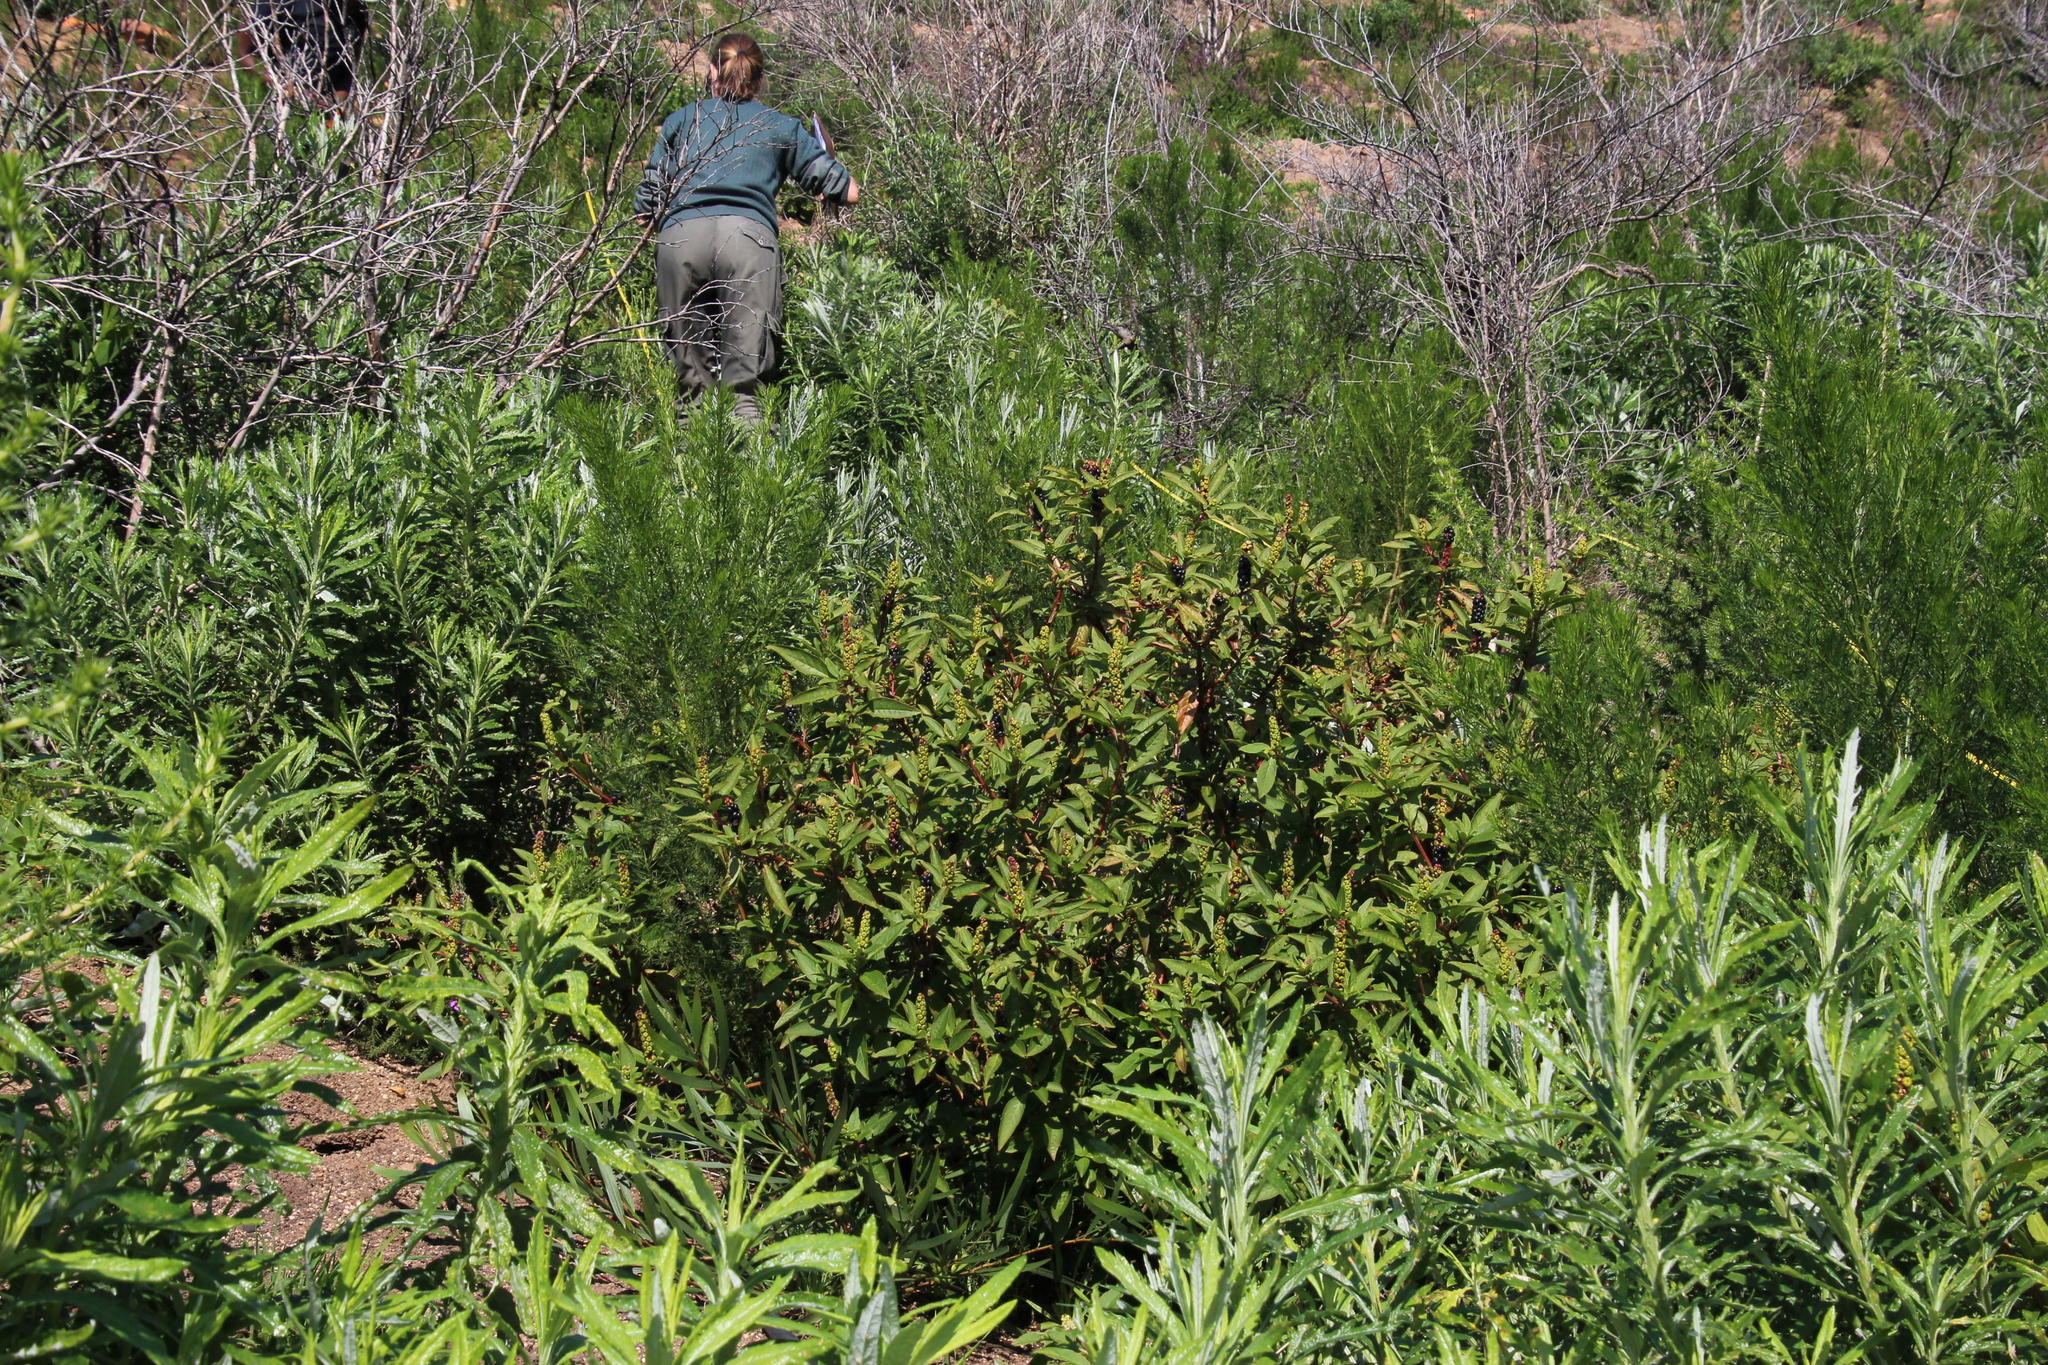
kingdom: Plantae
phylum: Tracheophyta
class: Magnoliopsida
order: Caryophyllales
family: Phytolaccaceae
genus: Phytolacca
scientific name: Phytolacca icosandra
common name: Button pokeweed
